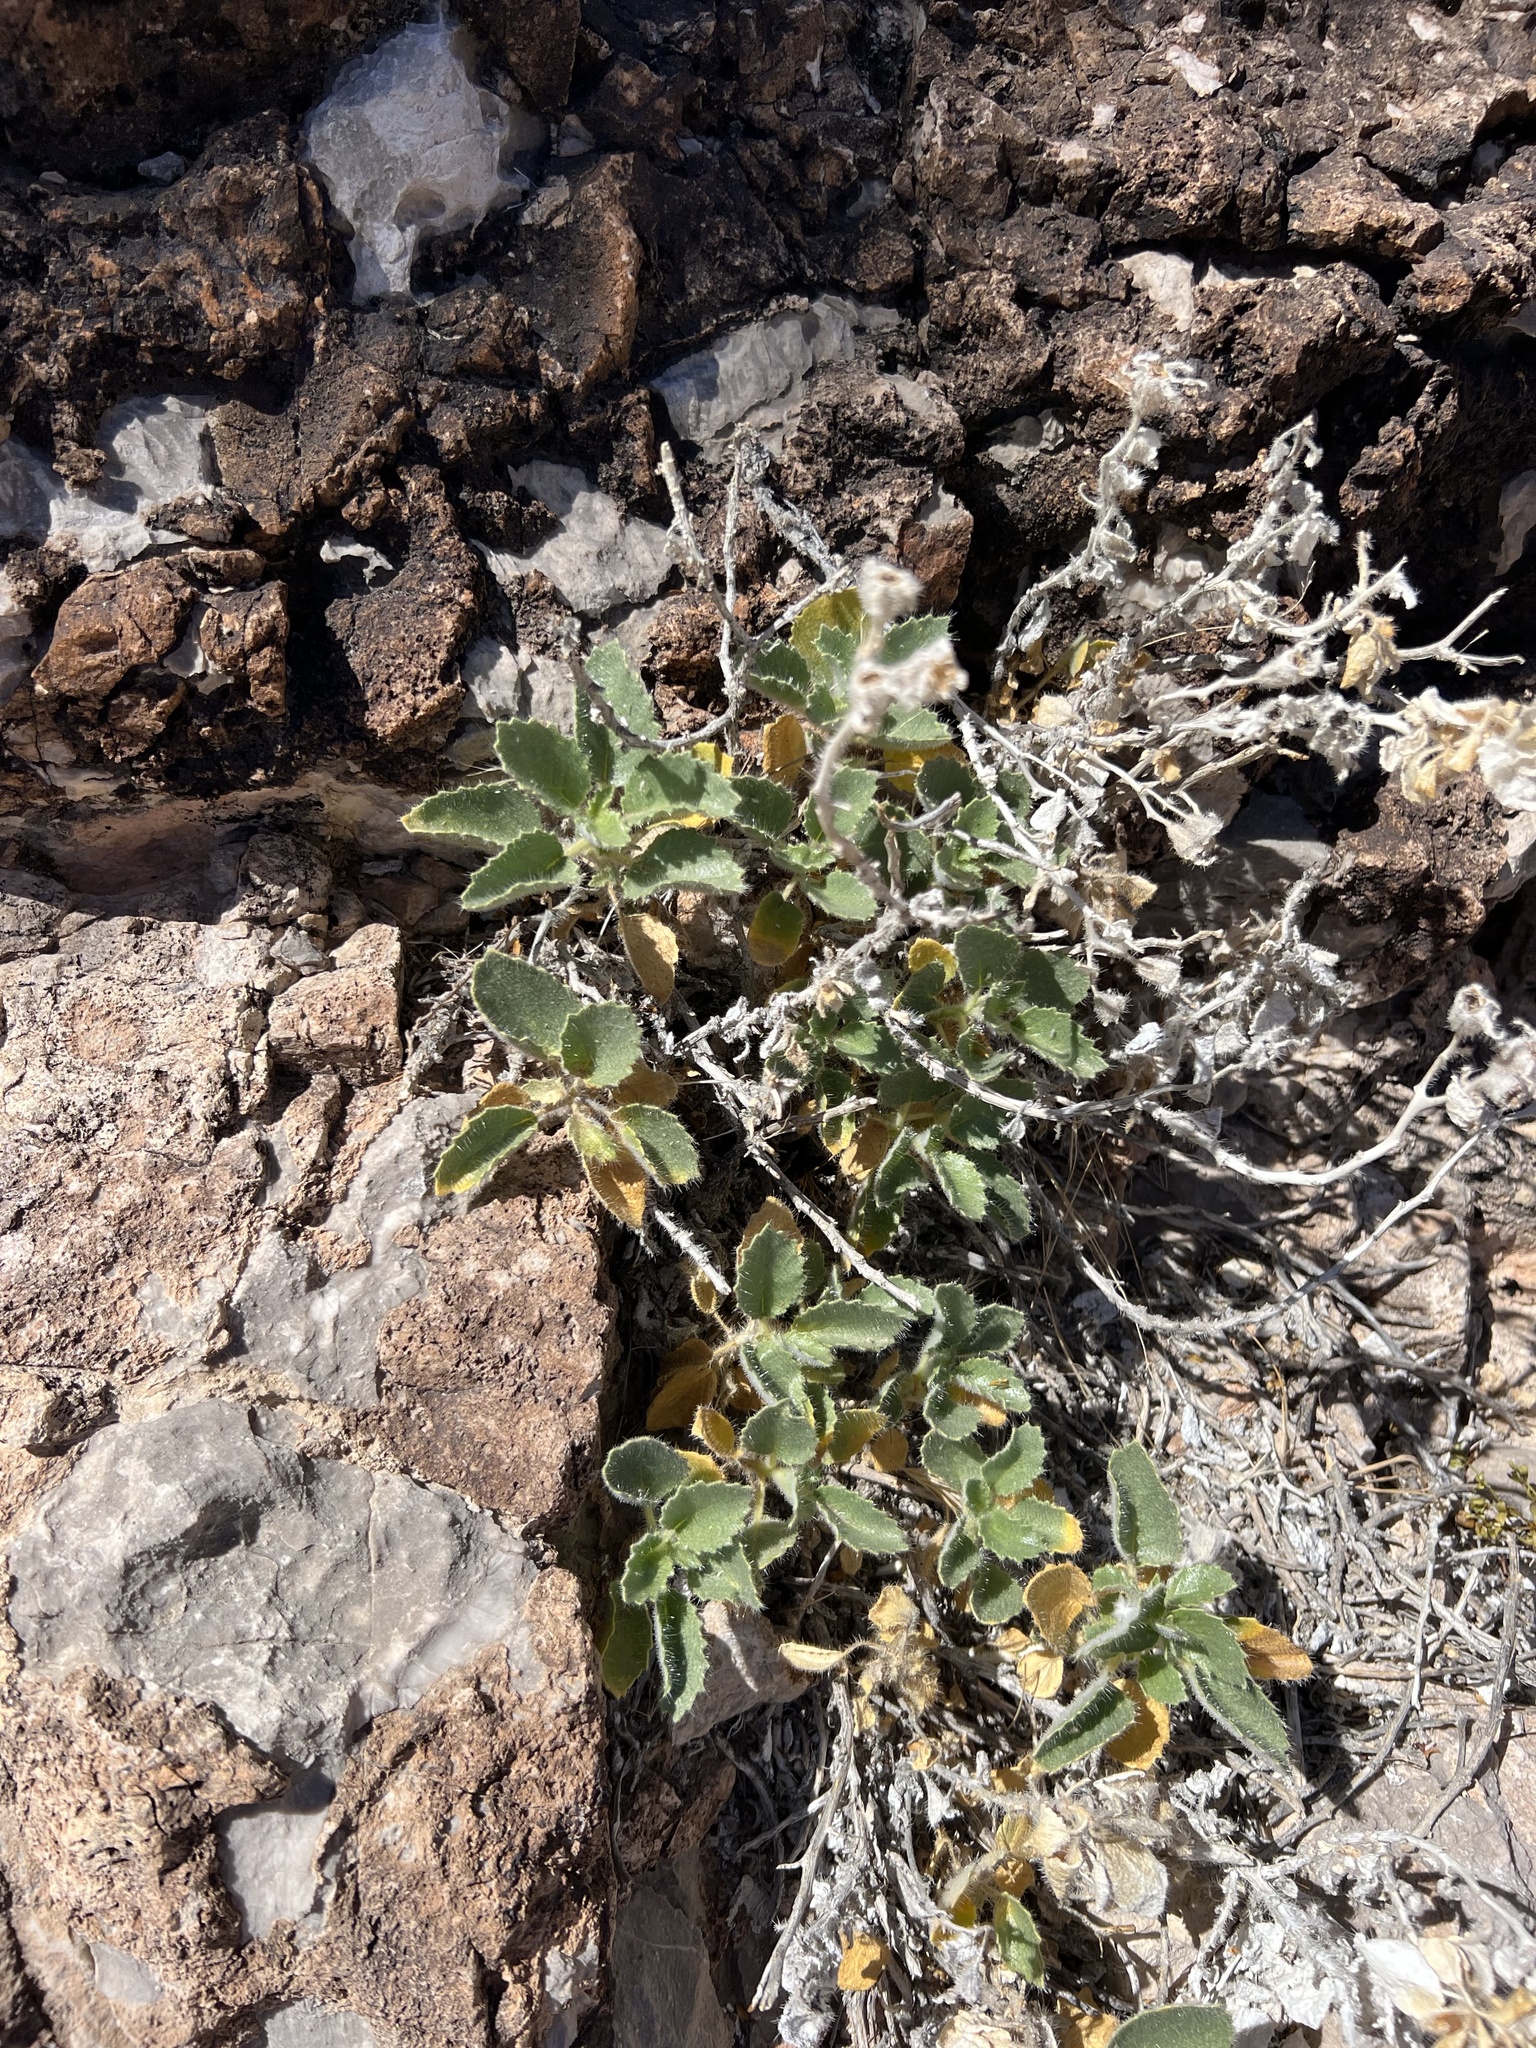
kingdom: Plantae
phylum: Tracheophyta
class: Magnoliopsida
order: Cornales
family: Loasaceae
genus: Eucnide
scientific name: Eucnide urens
